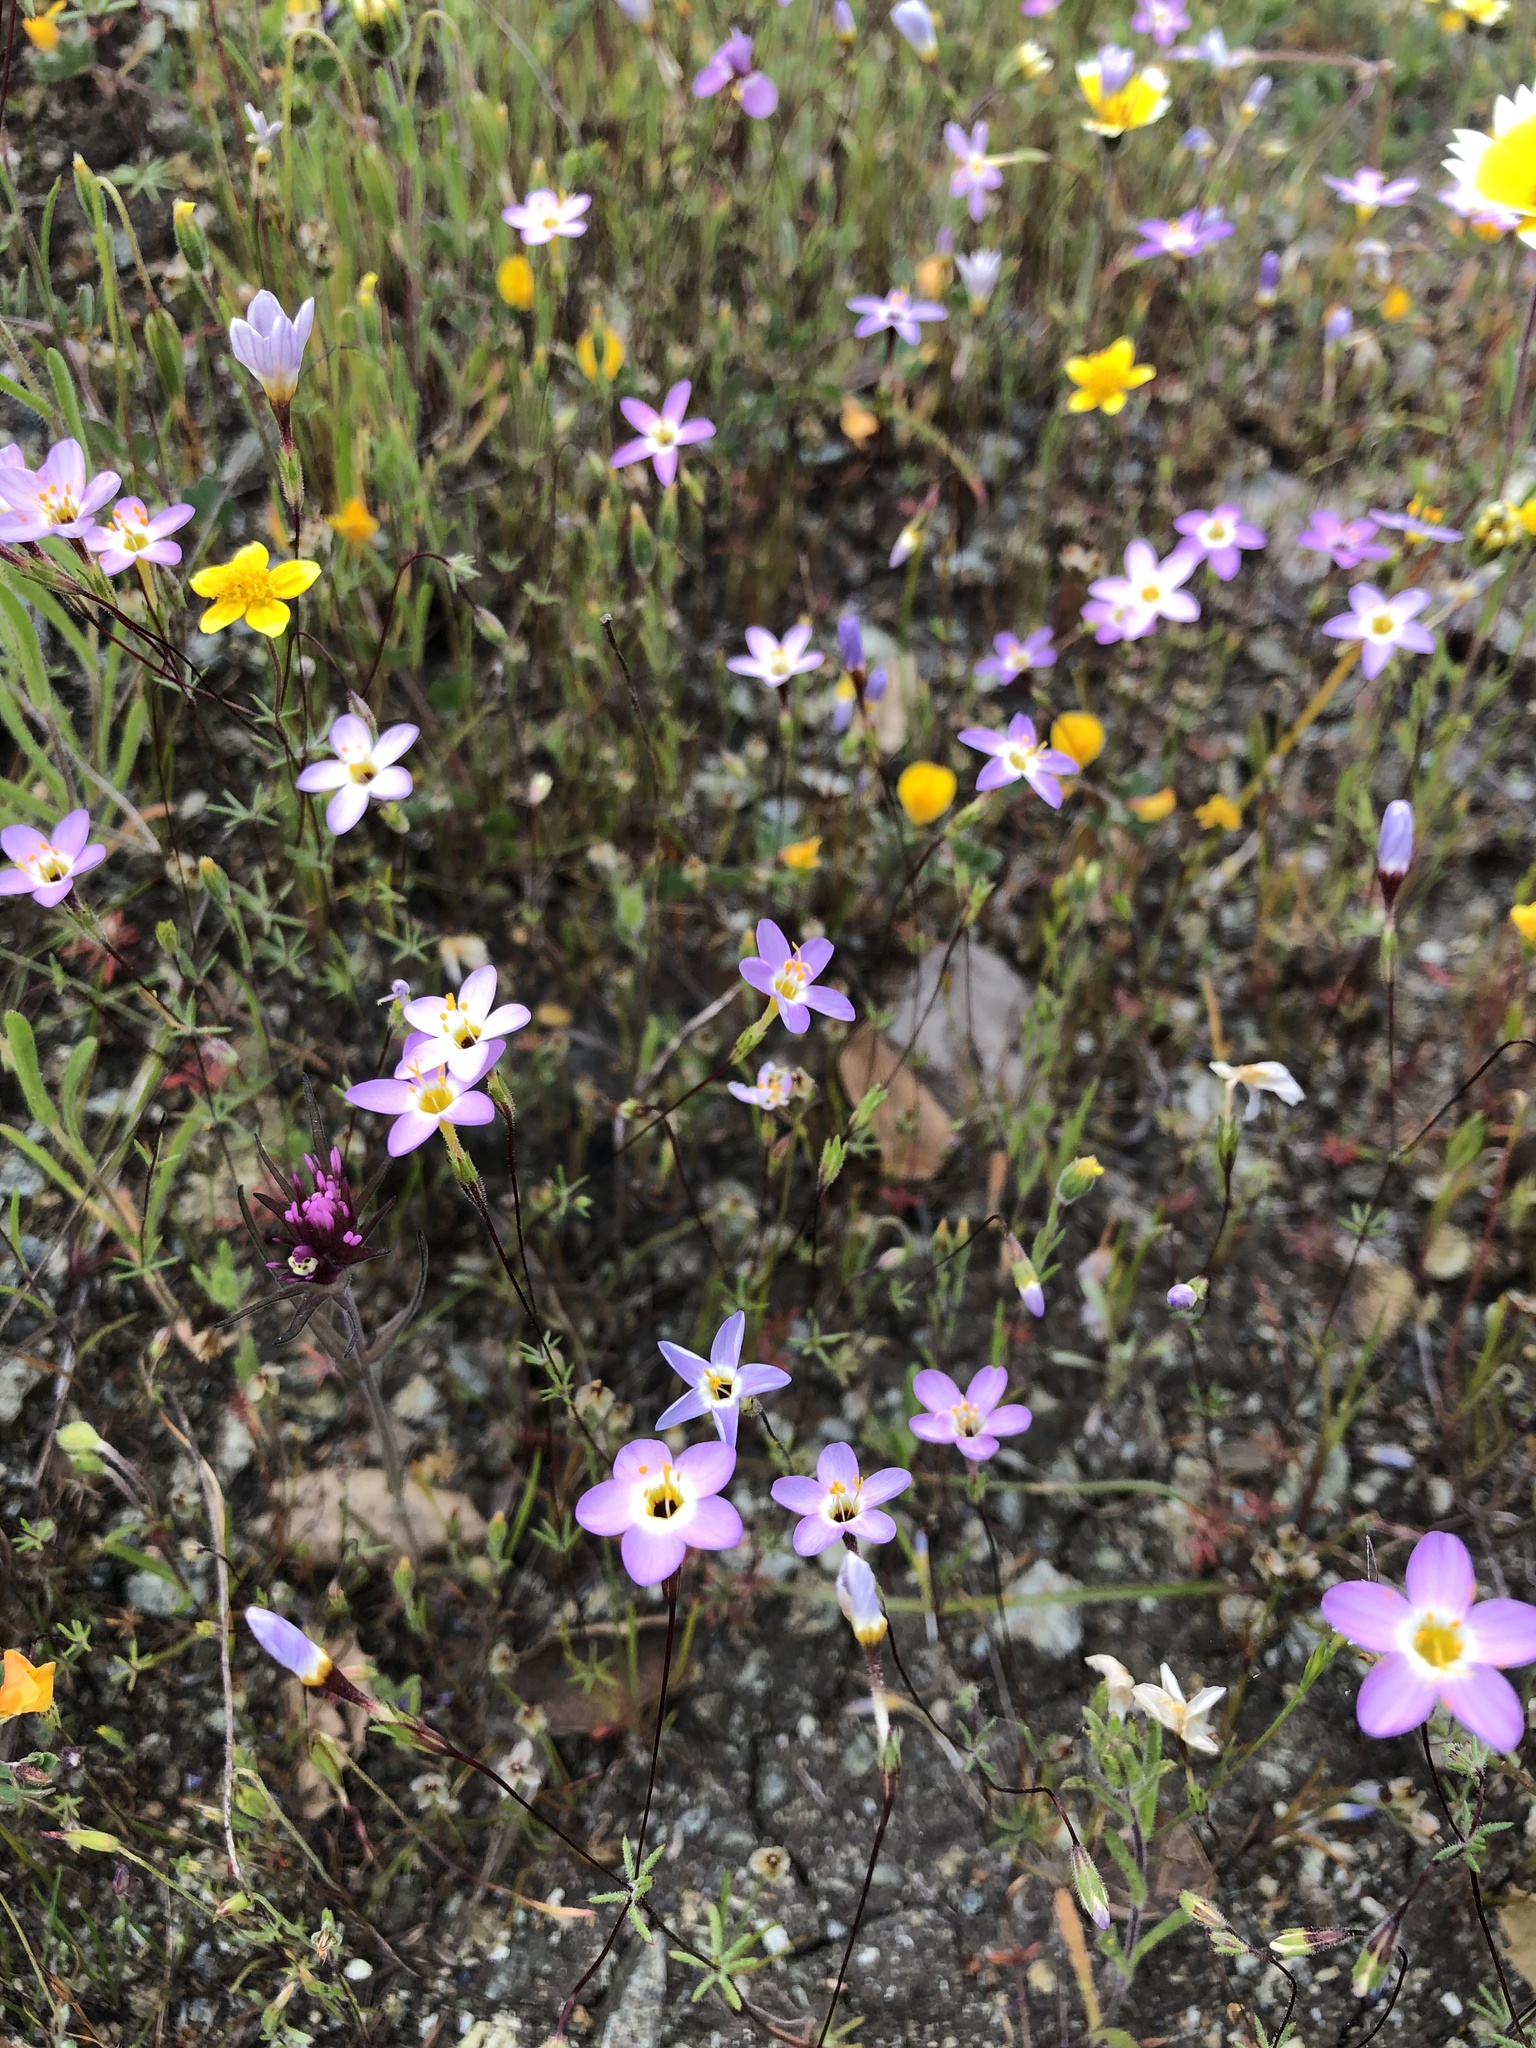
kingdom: Plantae
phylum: Tracheophyta
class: Magnoliopsida
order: Ericales
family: Polemoniaceae
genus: Leptosiphon
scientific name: Leptosiphon ambiguus
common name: Serpentine linanthus
